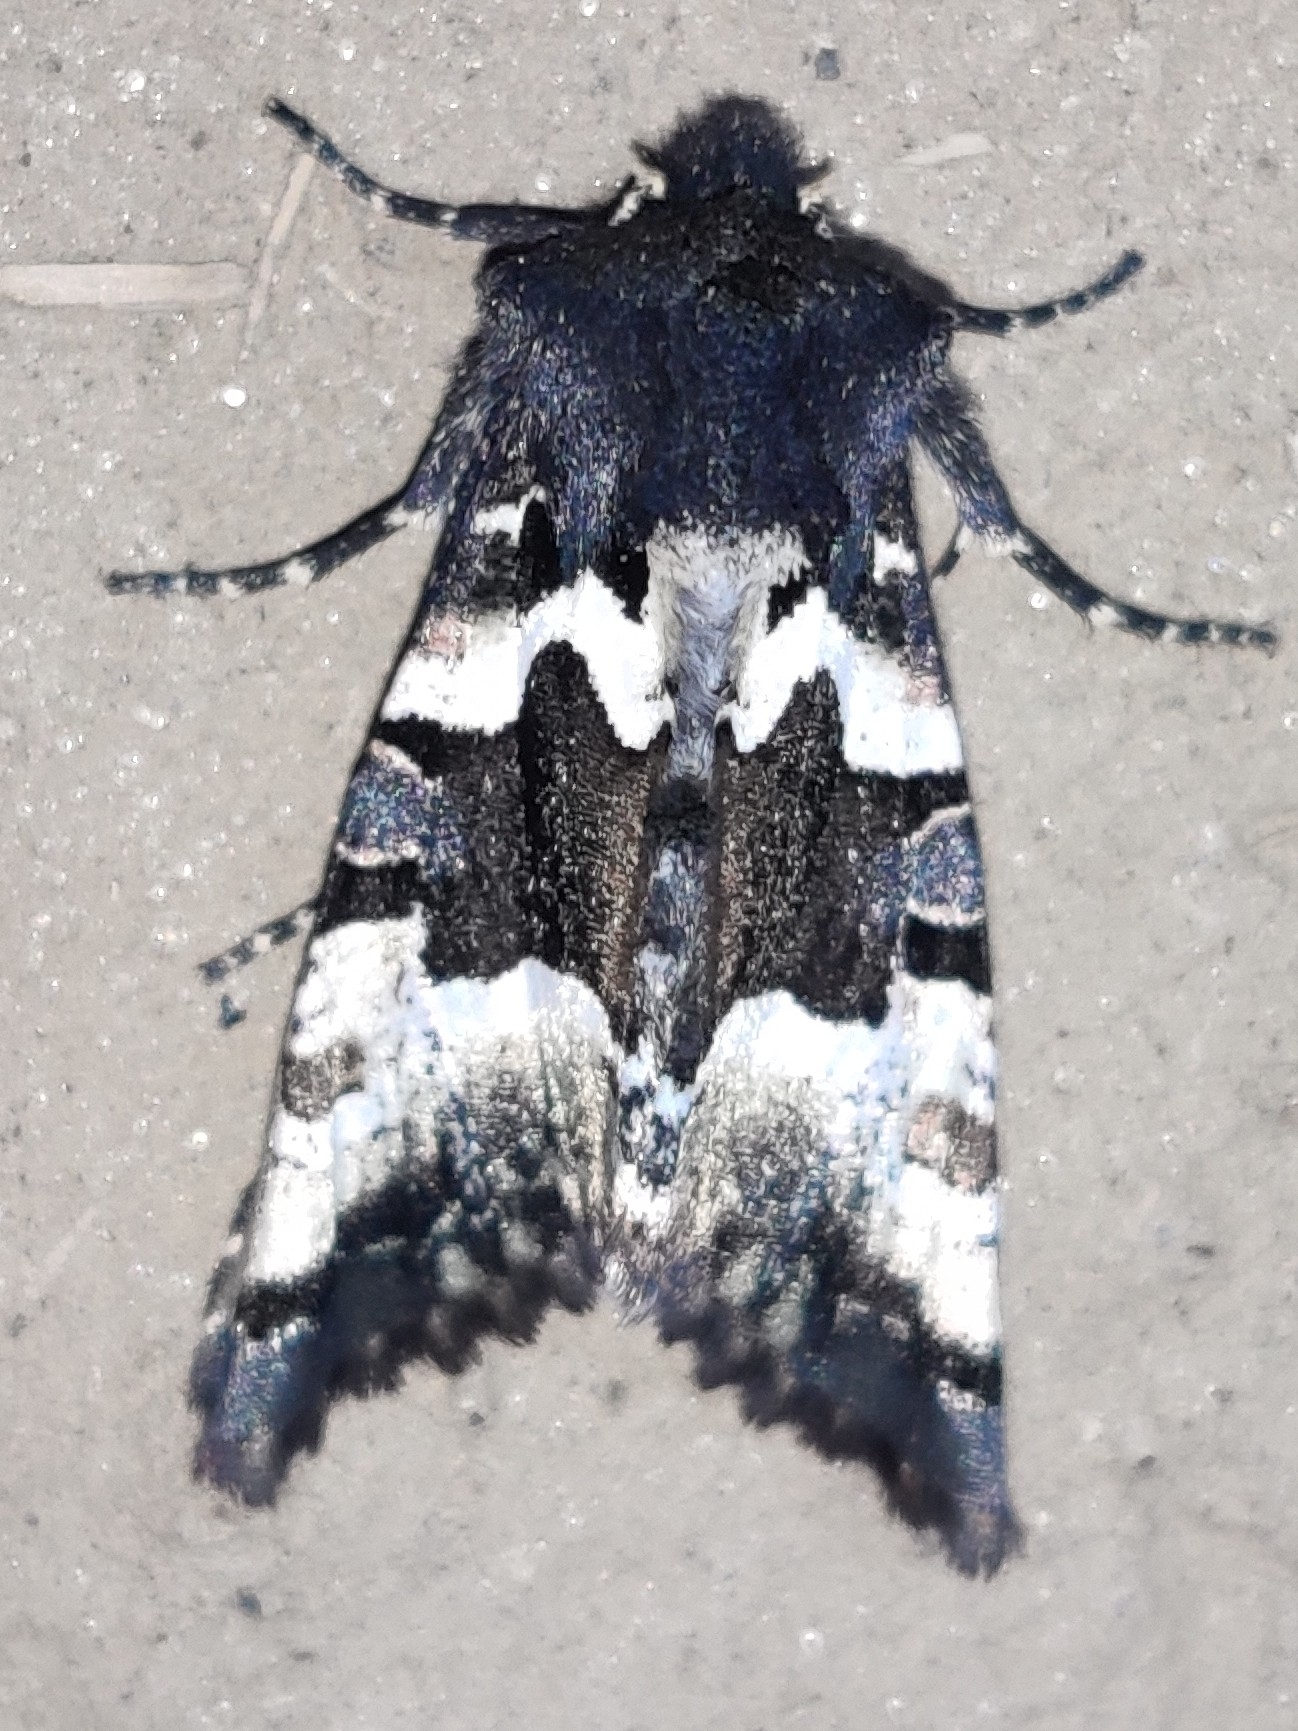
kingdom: Animalia
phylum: Arthropoda
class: Insecta
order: Lepidoptera
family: Noctuidae
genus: Phlogophora
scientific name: Phlogophora albovittata
